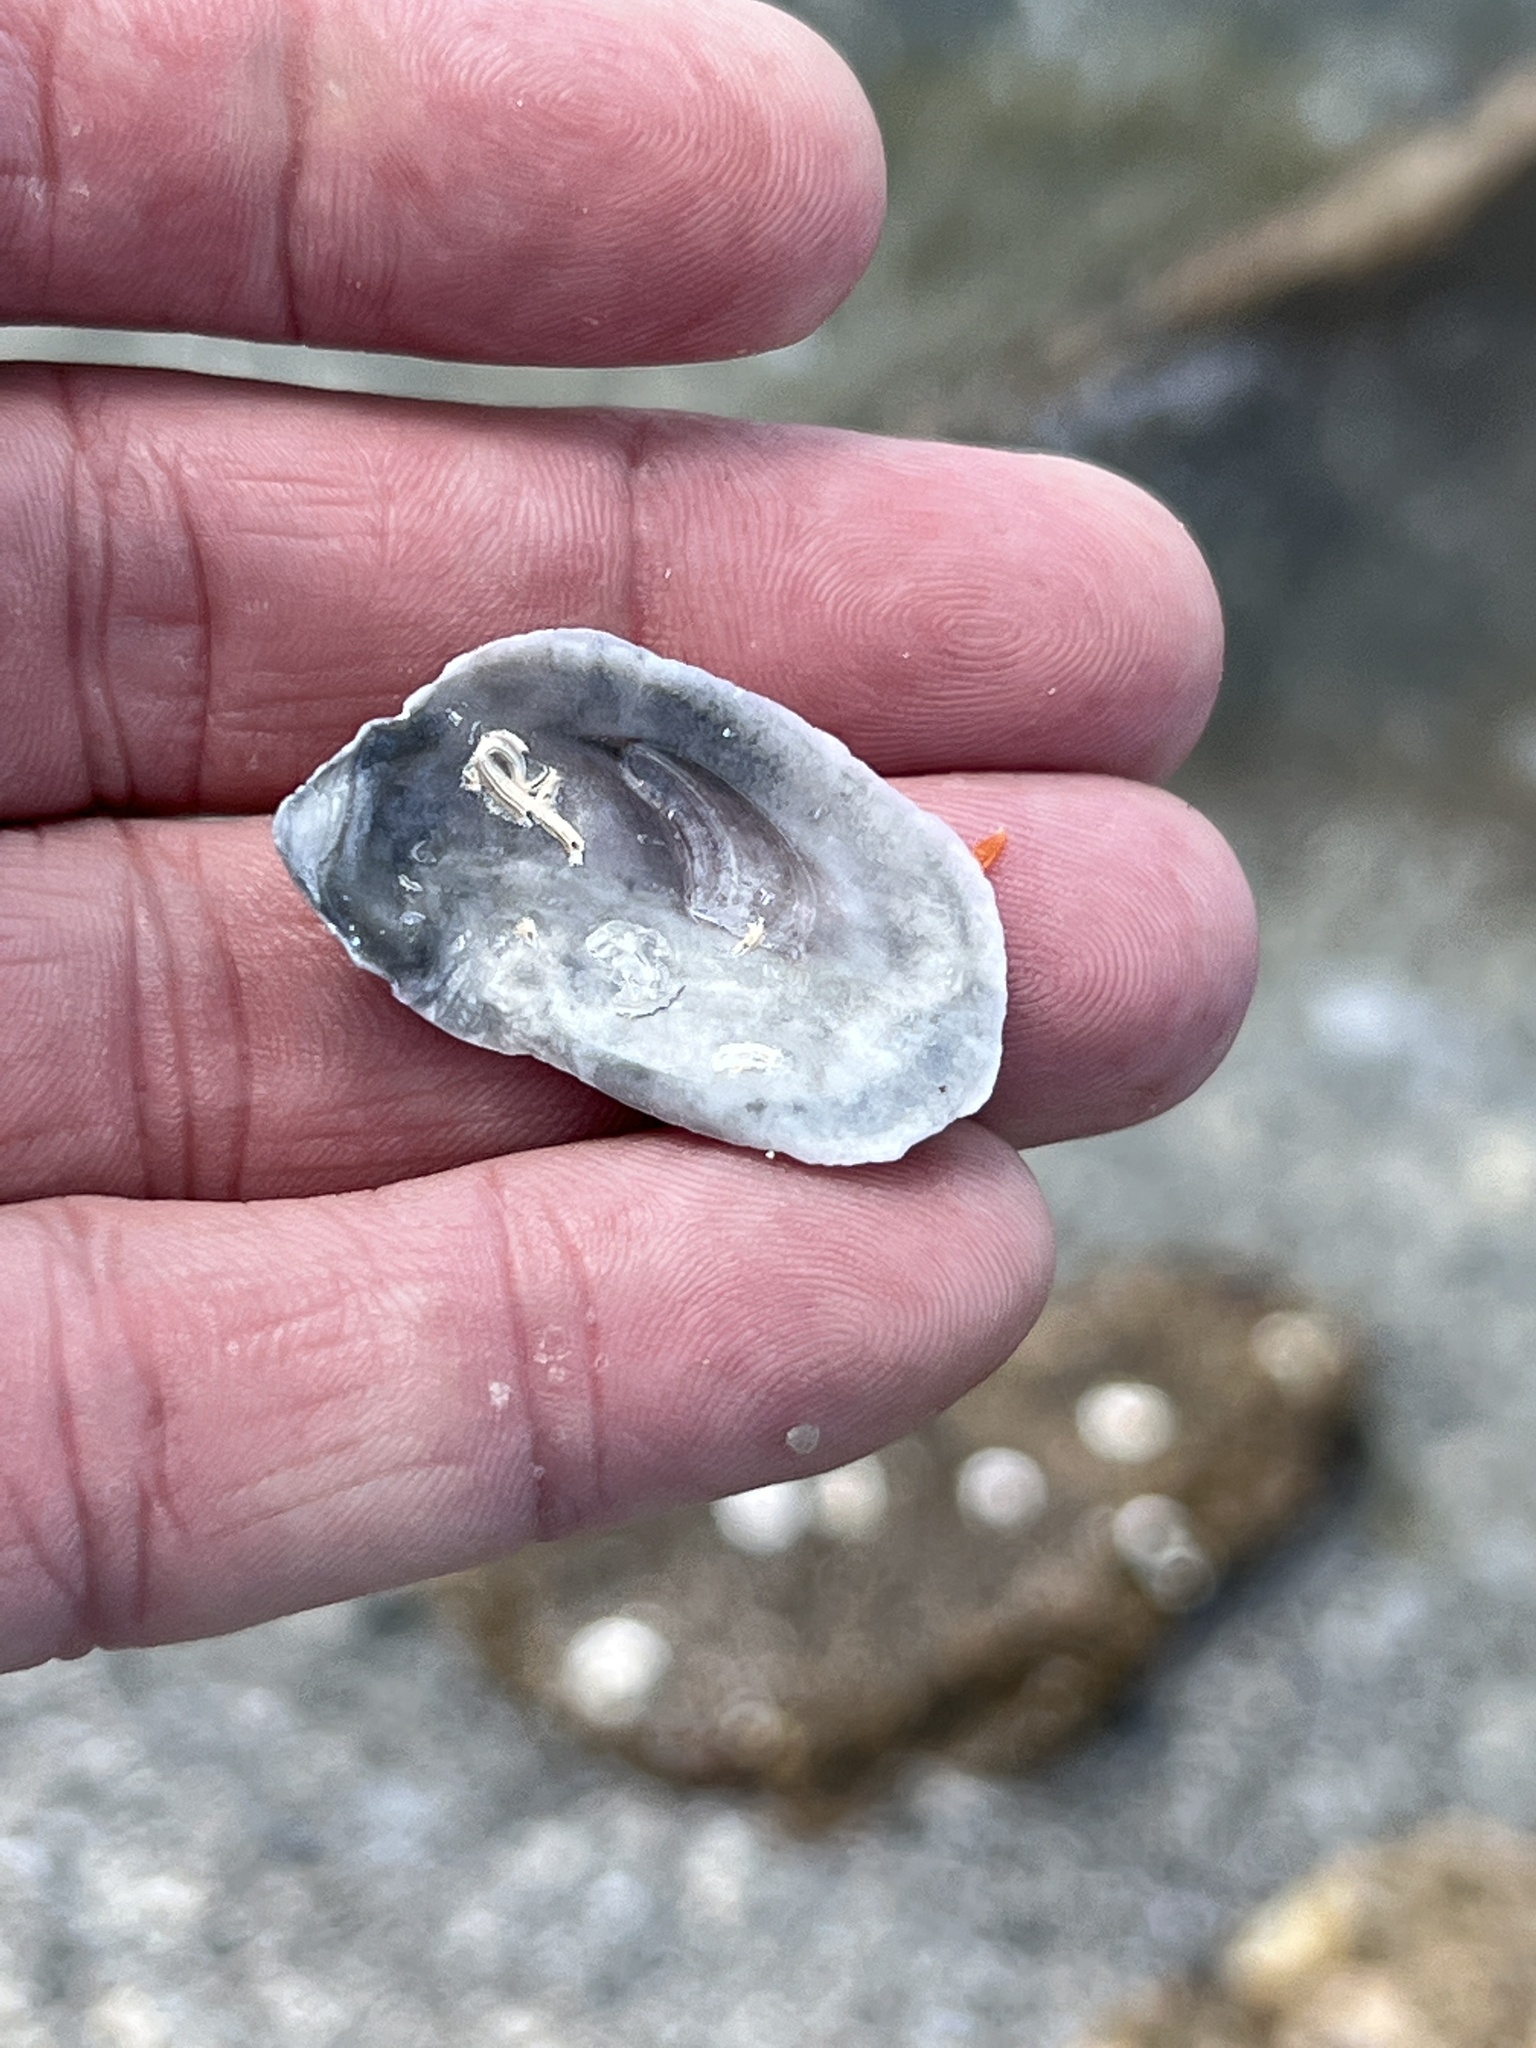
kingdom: Animalia
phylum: Mollusca
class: Bivalvia
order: Ostreida
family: Ostreidae
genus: Crassostrea
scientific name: Crassostrea virginica
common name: American oyster
